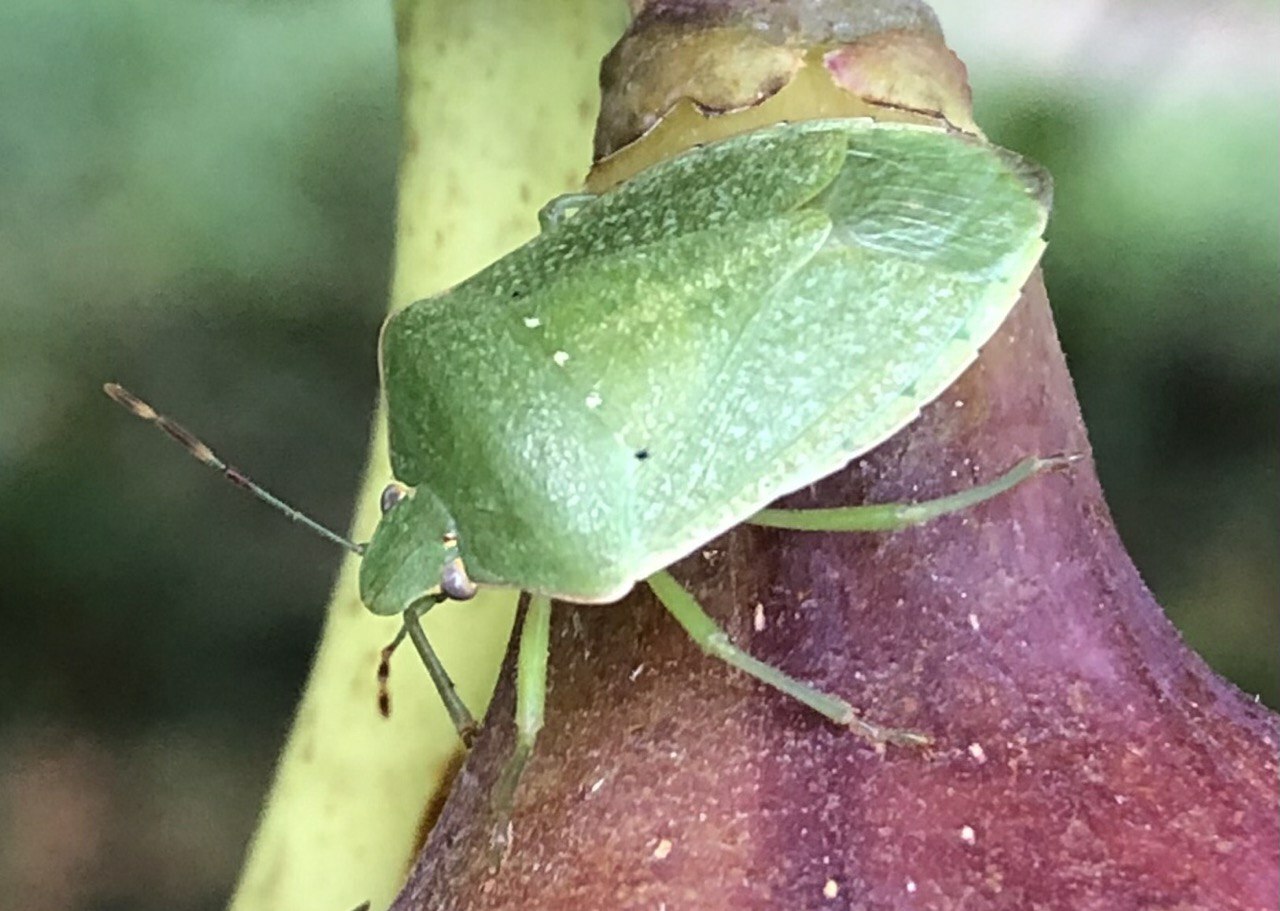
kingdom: Animalia
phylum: Arthropoda
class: Insecta
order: Hemiptera
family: Pentatomidae
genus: Nezara
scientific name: Nezara viridula
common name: Southern green stink bug
